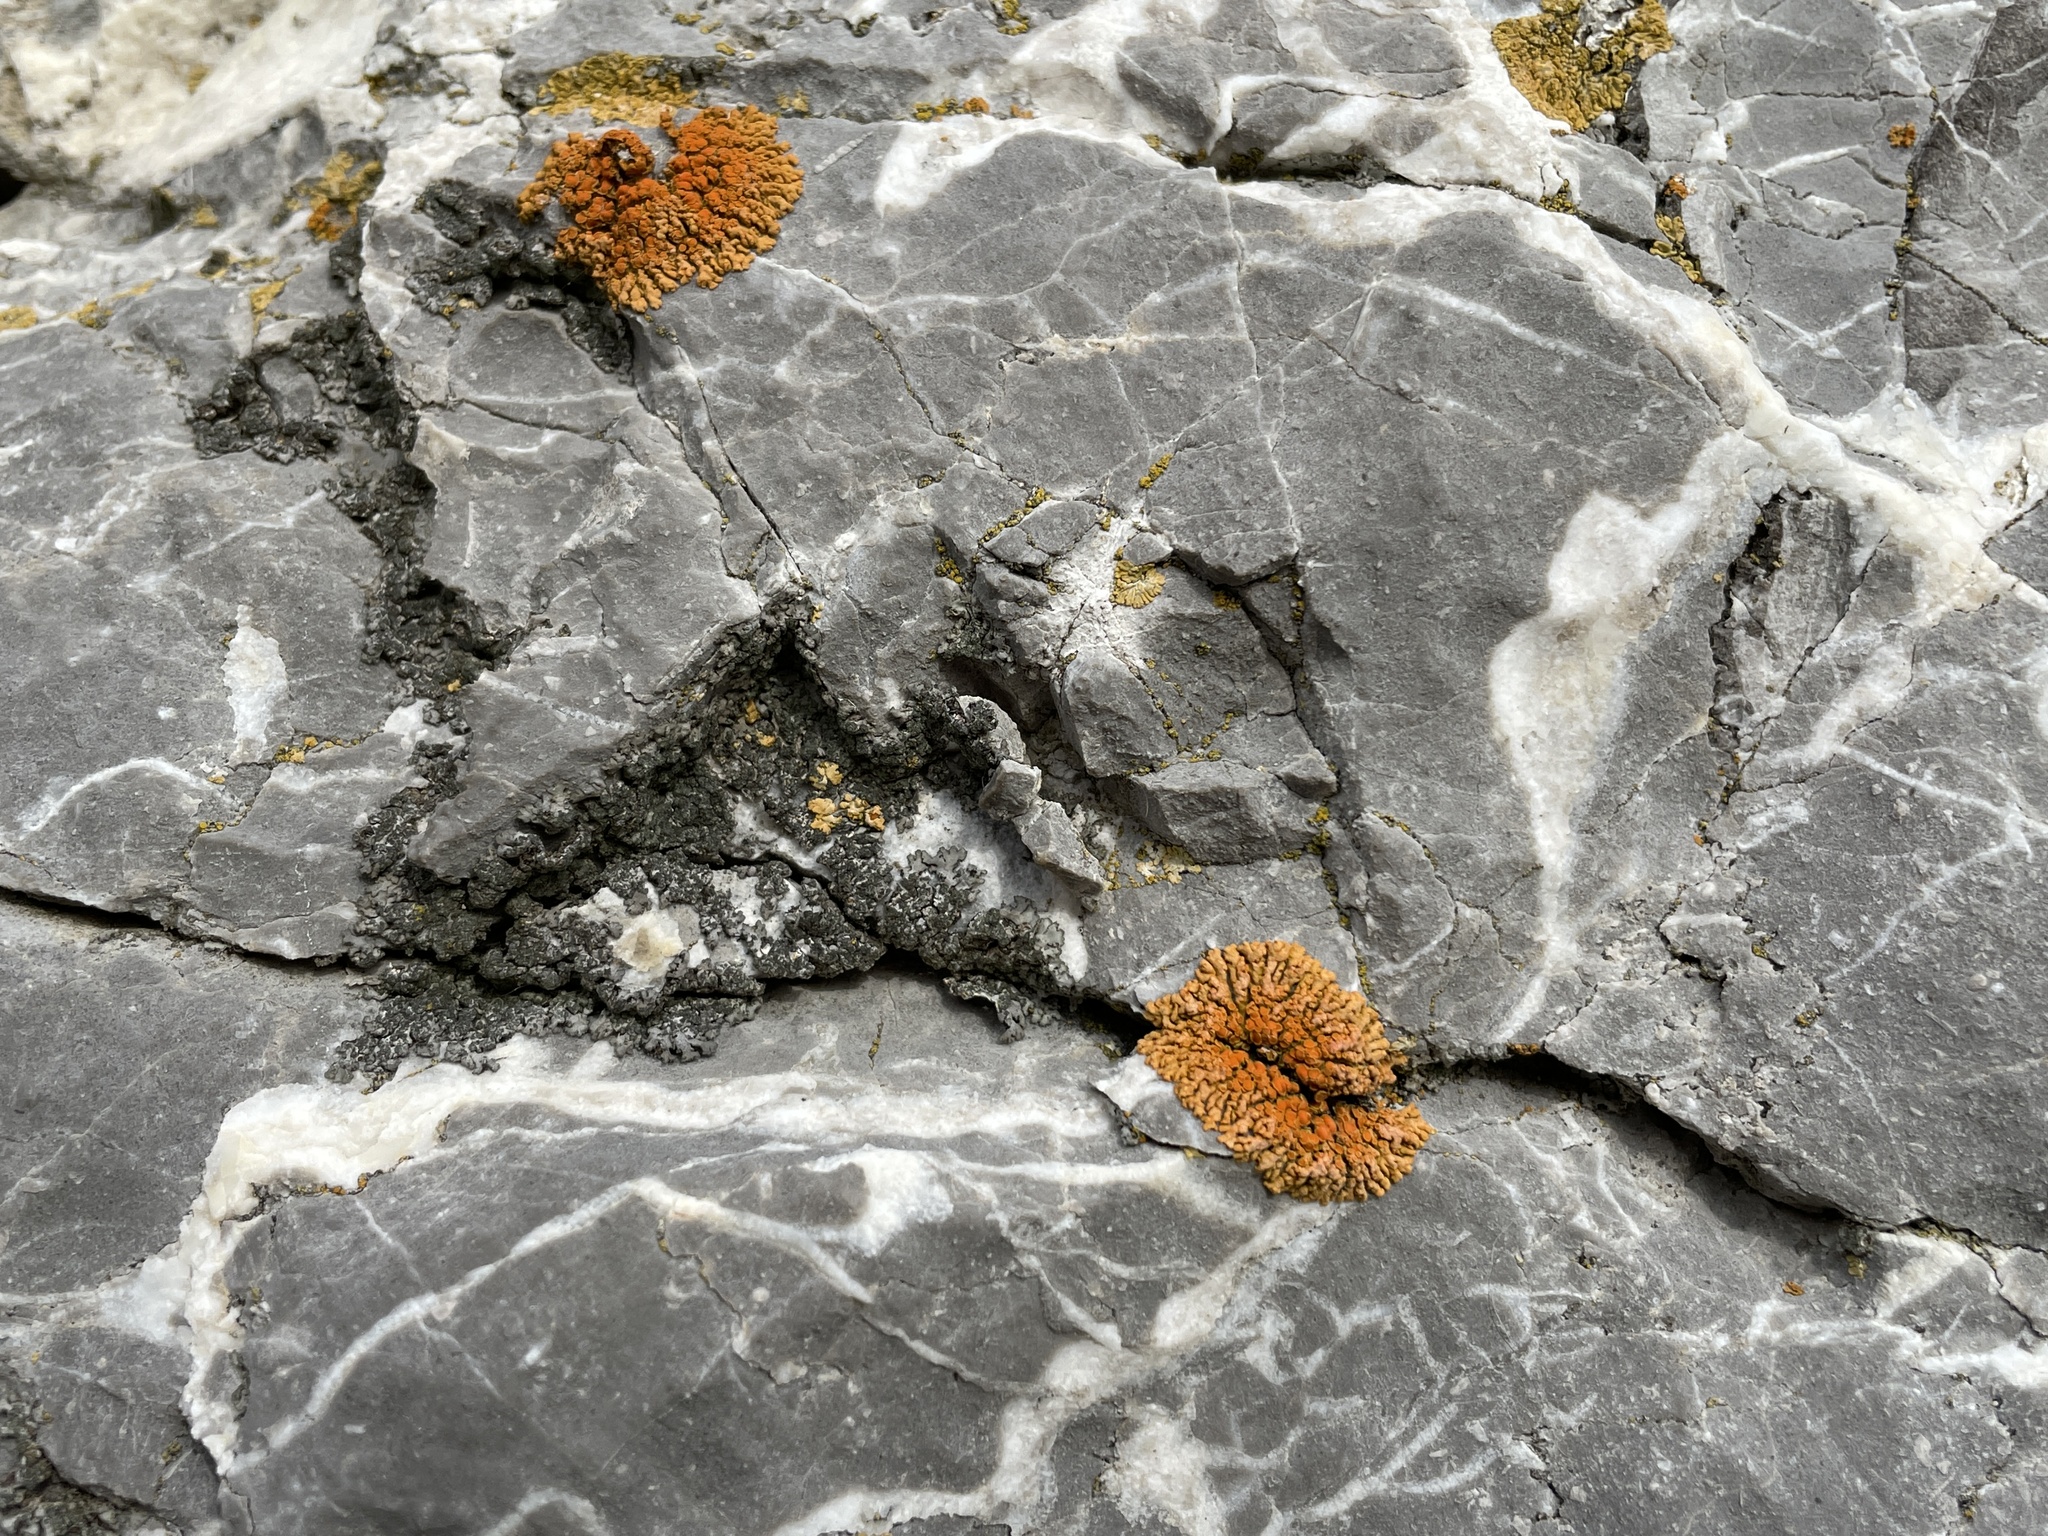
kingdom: Fungi
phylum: Ascomycota
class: Lecanoromycetes
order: Teloschistales
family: Teloschistaceae
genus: Xanthoria
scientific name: Xanthoria elegans
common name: Elegant sunburst lichen
